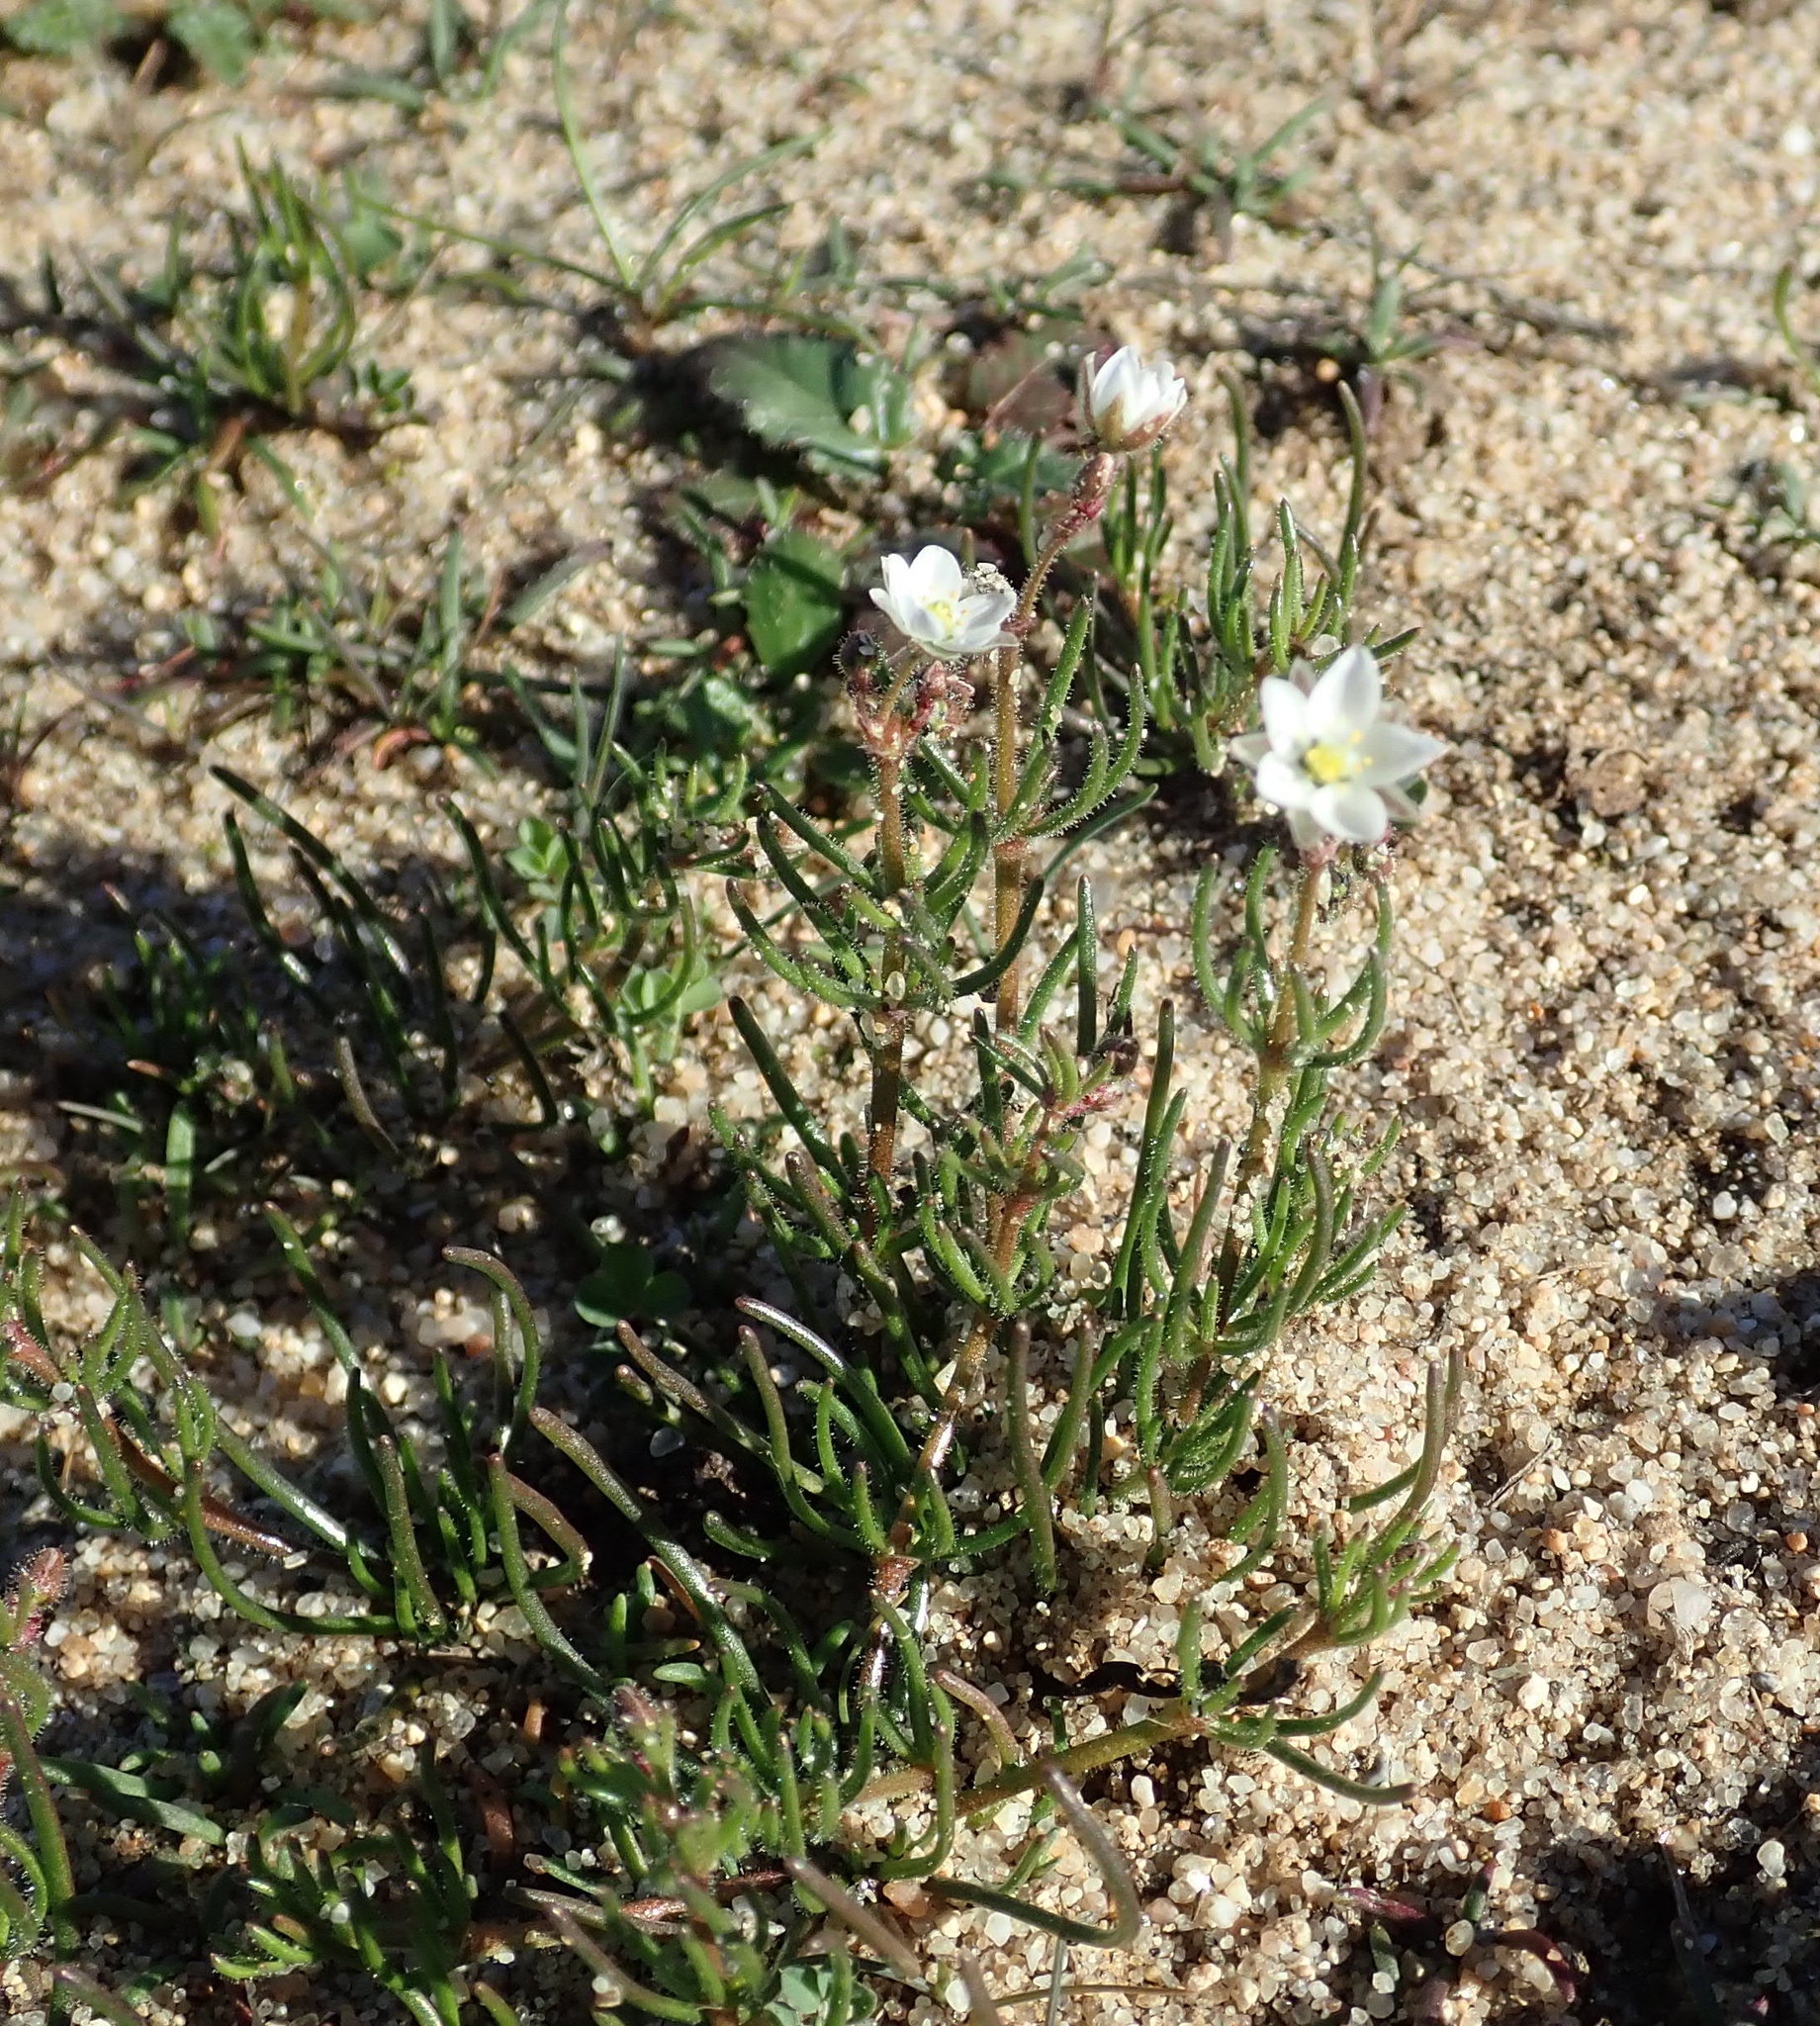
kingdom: Plantae
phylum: Tracheophyta
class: Magnoliopsida
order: Caryophyllales
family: Caryophyllaceae
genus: Spergula
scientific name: Spergula arvensis
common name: Corn spurrey
